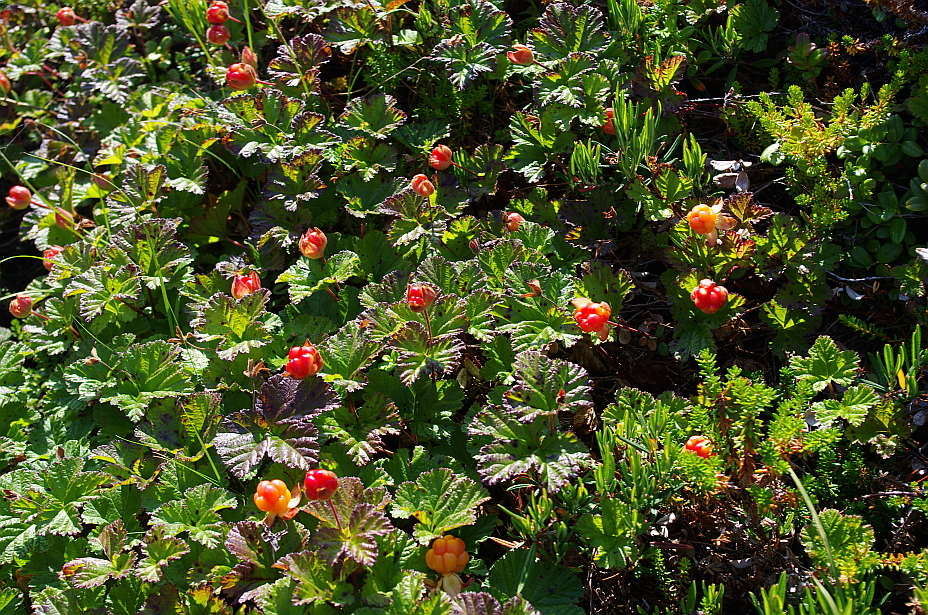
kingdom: Plantae
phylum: Tracheophyta
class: Magnoliopsida
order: Rosales
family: Rosaceae
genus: Rubus
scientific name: Rubus chamaemorus
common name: Cloudberry
